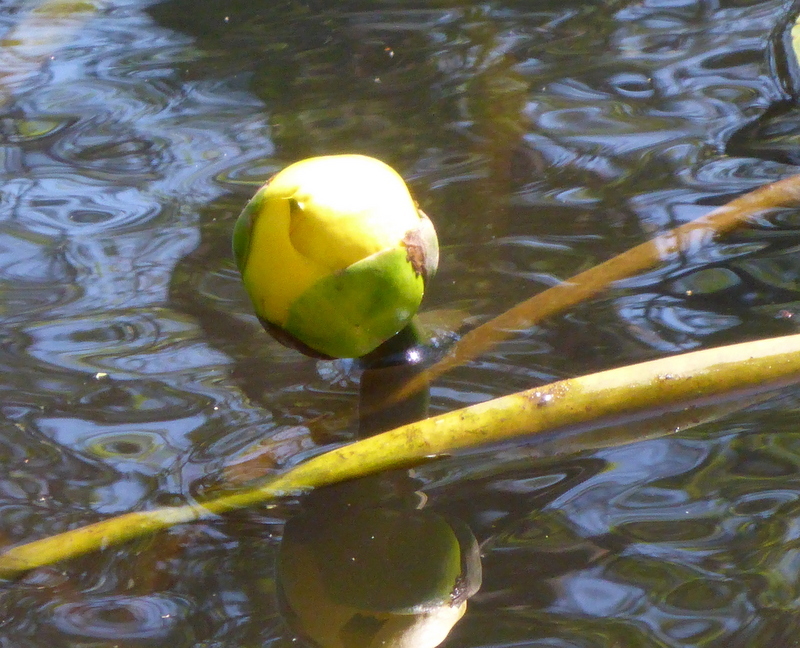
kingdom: Plantae
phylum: Tracheophyta
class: Magnoliopsida
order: Nymphaeales
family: Nymphaeaceae
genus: Nuphar
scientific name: Nuphar advena
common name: Spatter-dock
